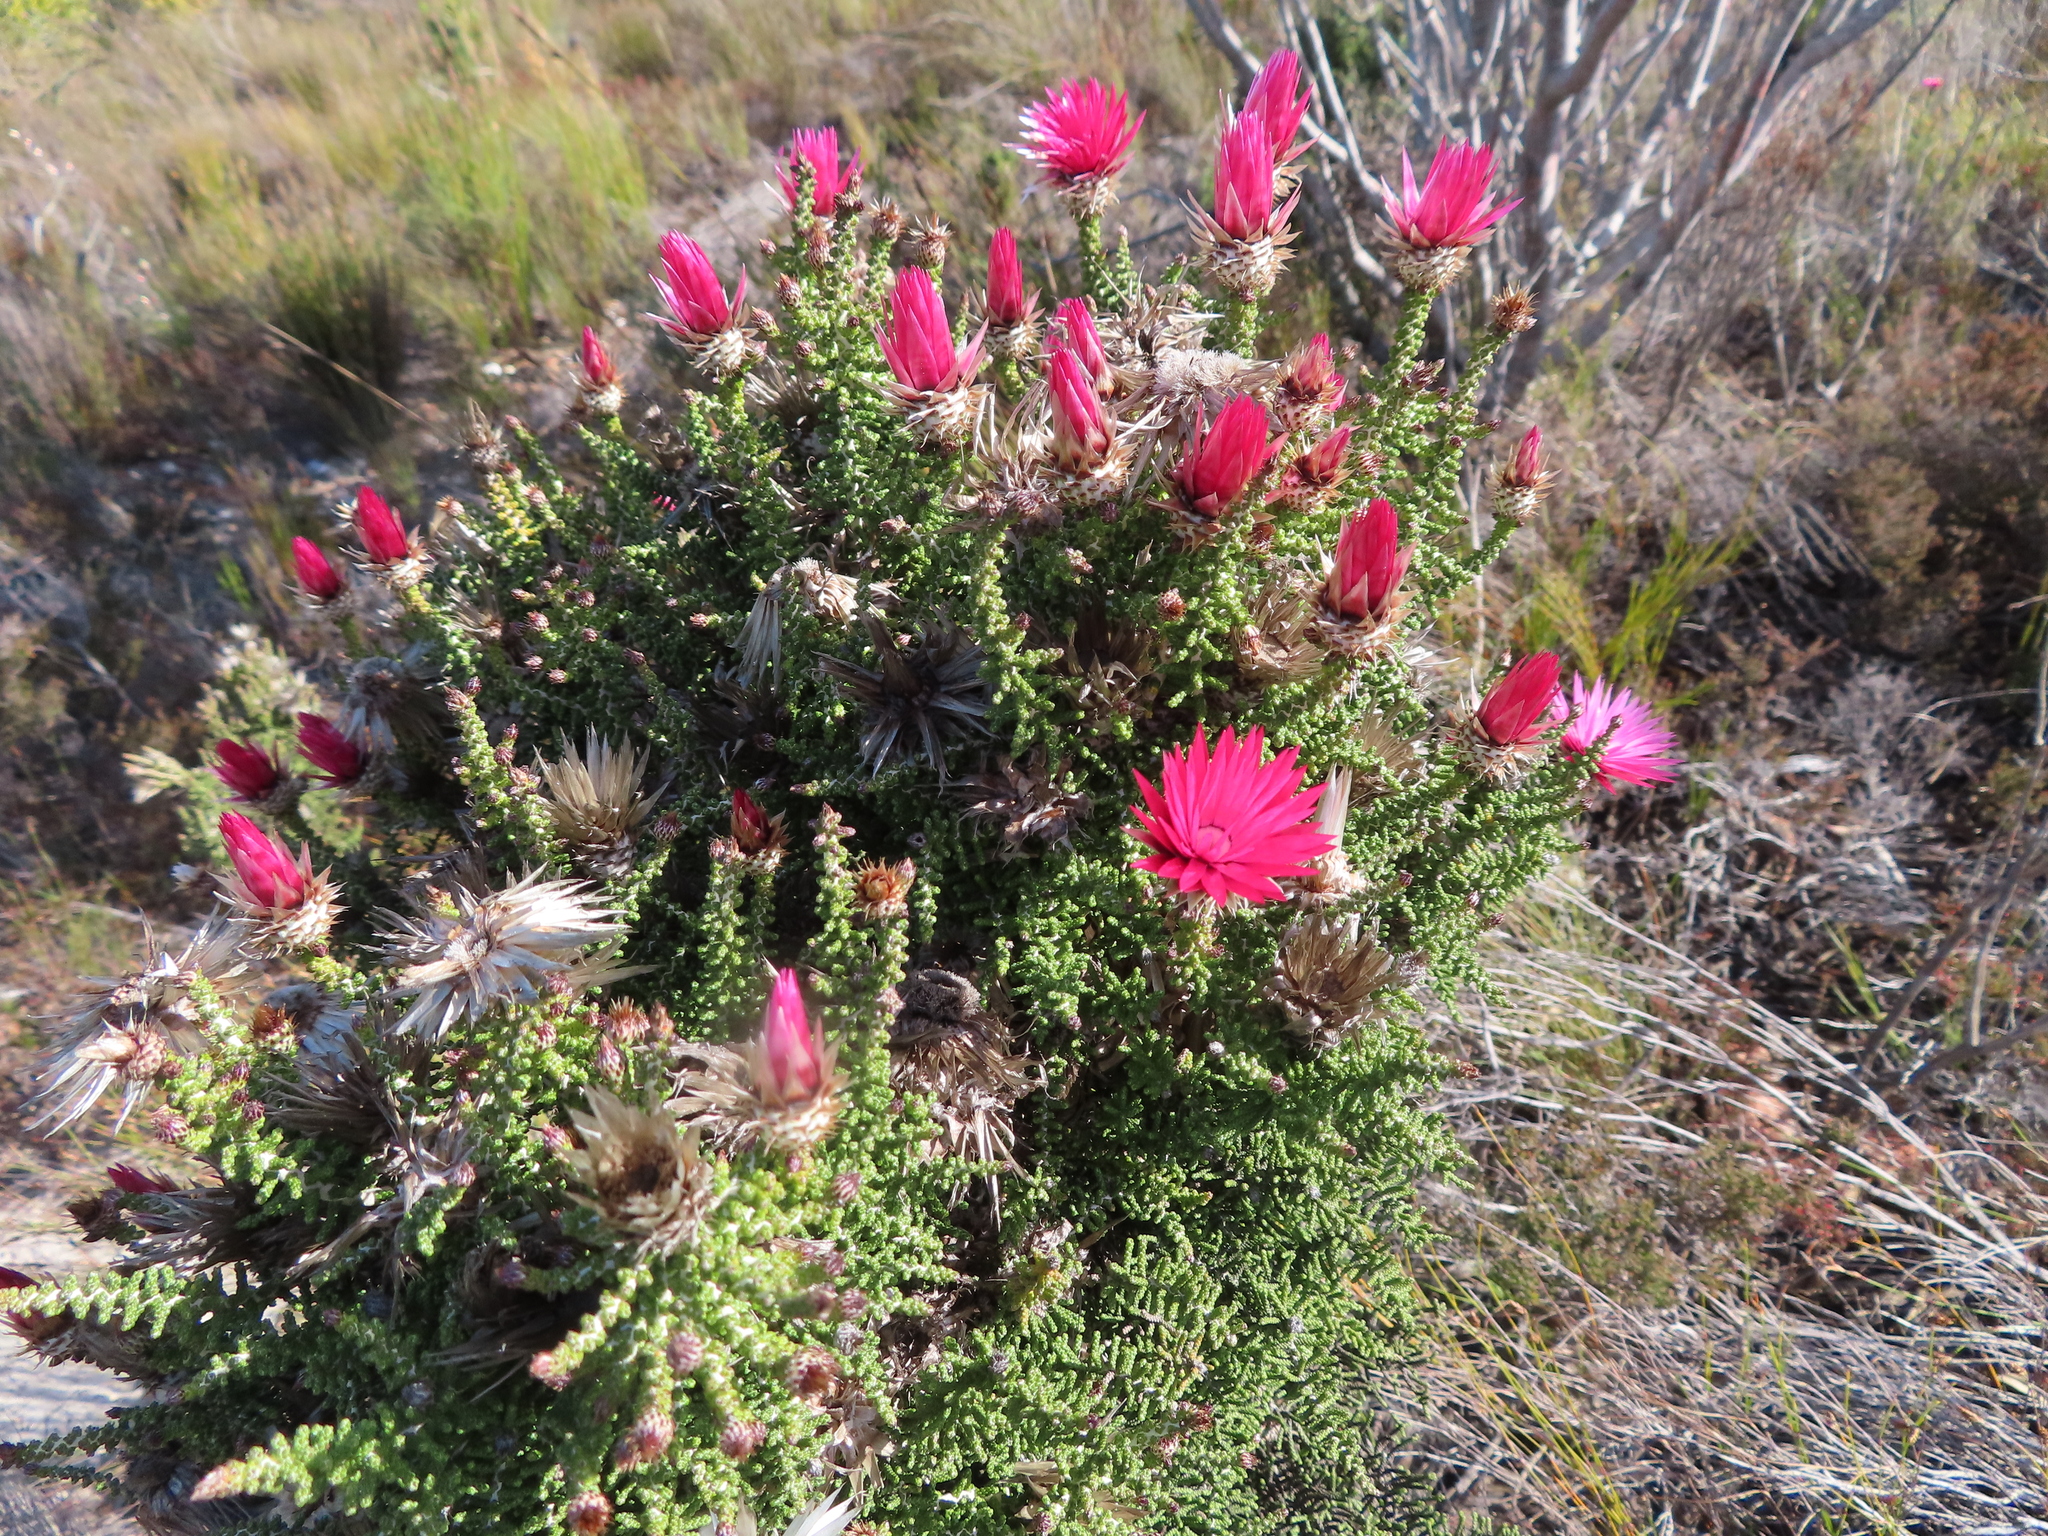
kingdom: Plantae
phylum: Tracheophyta
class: Magnoliopsida
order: Asterales
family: Asteraceae
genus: Phaenocoma
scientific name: Phaenocoma prolifera
